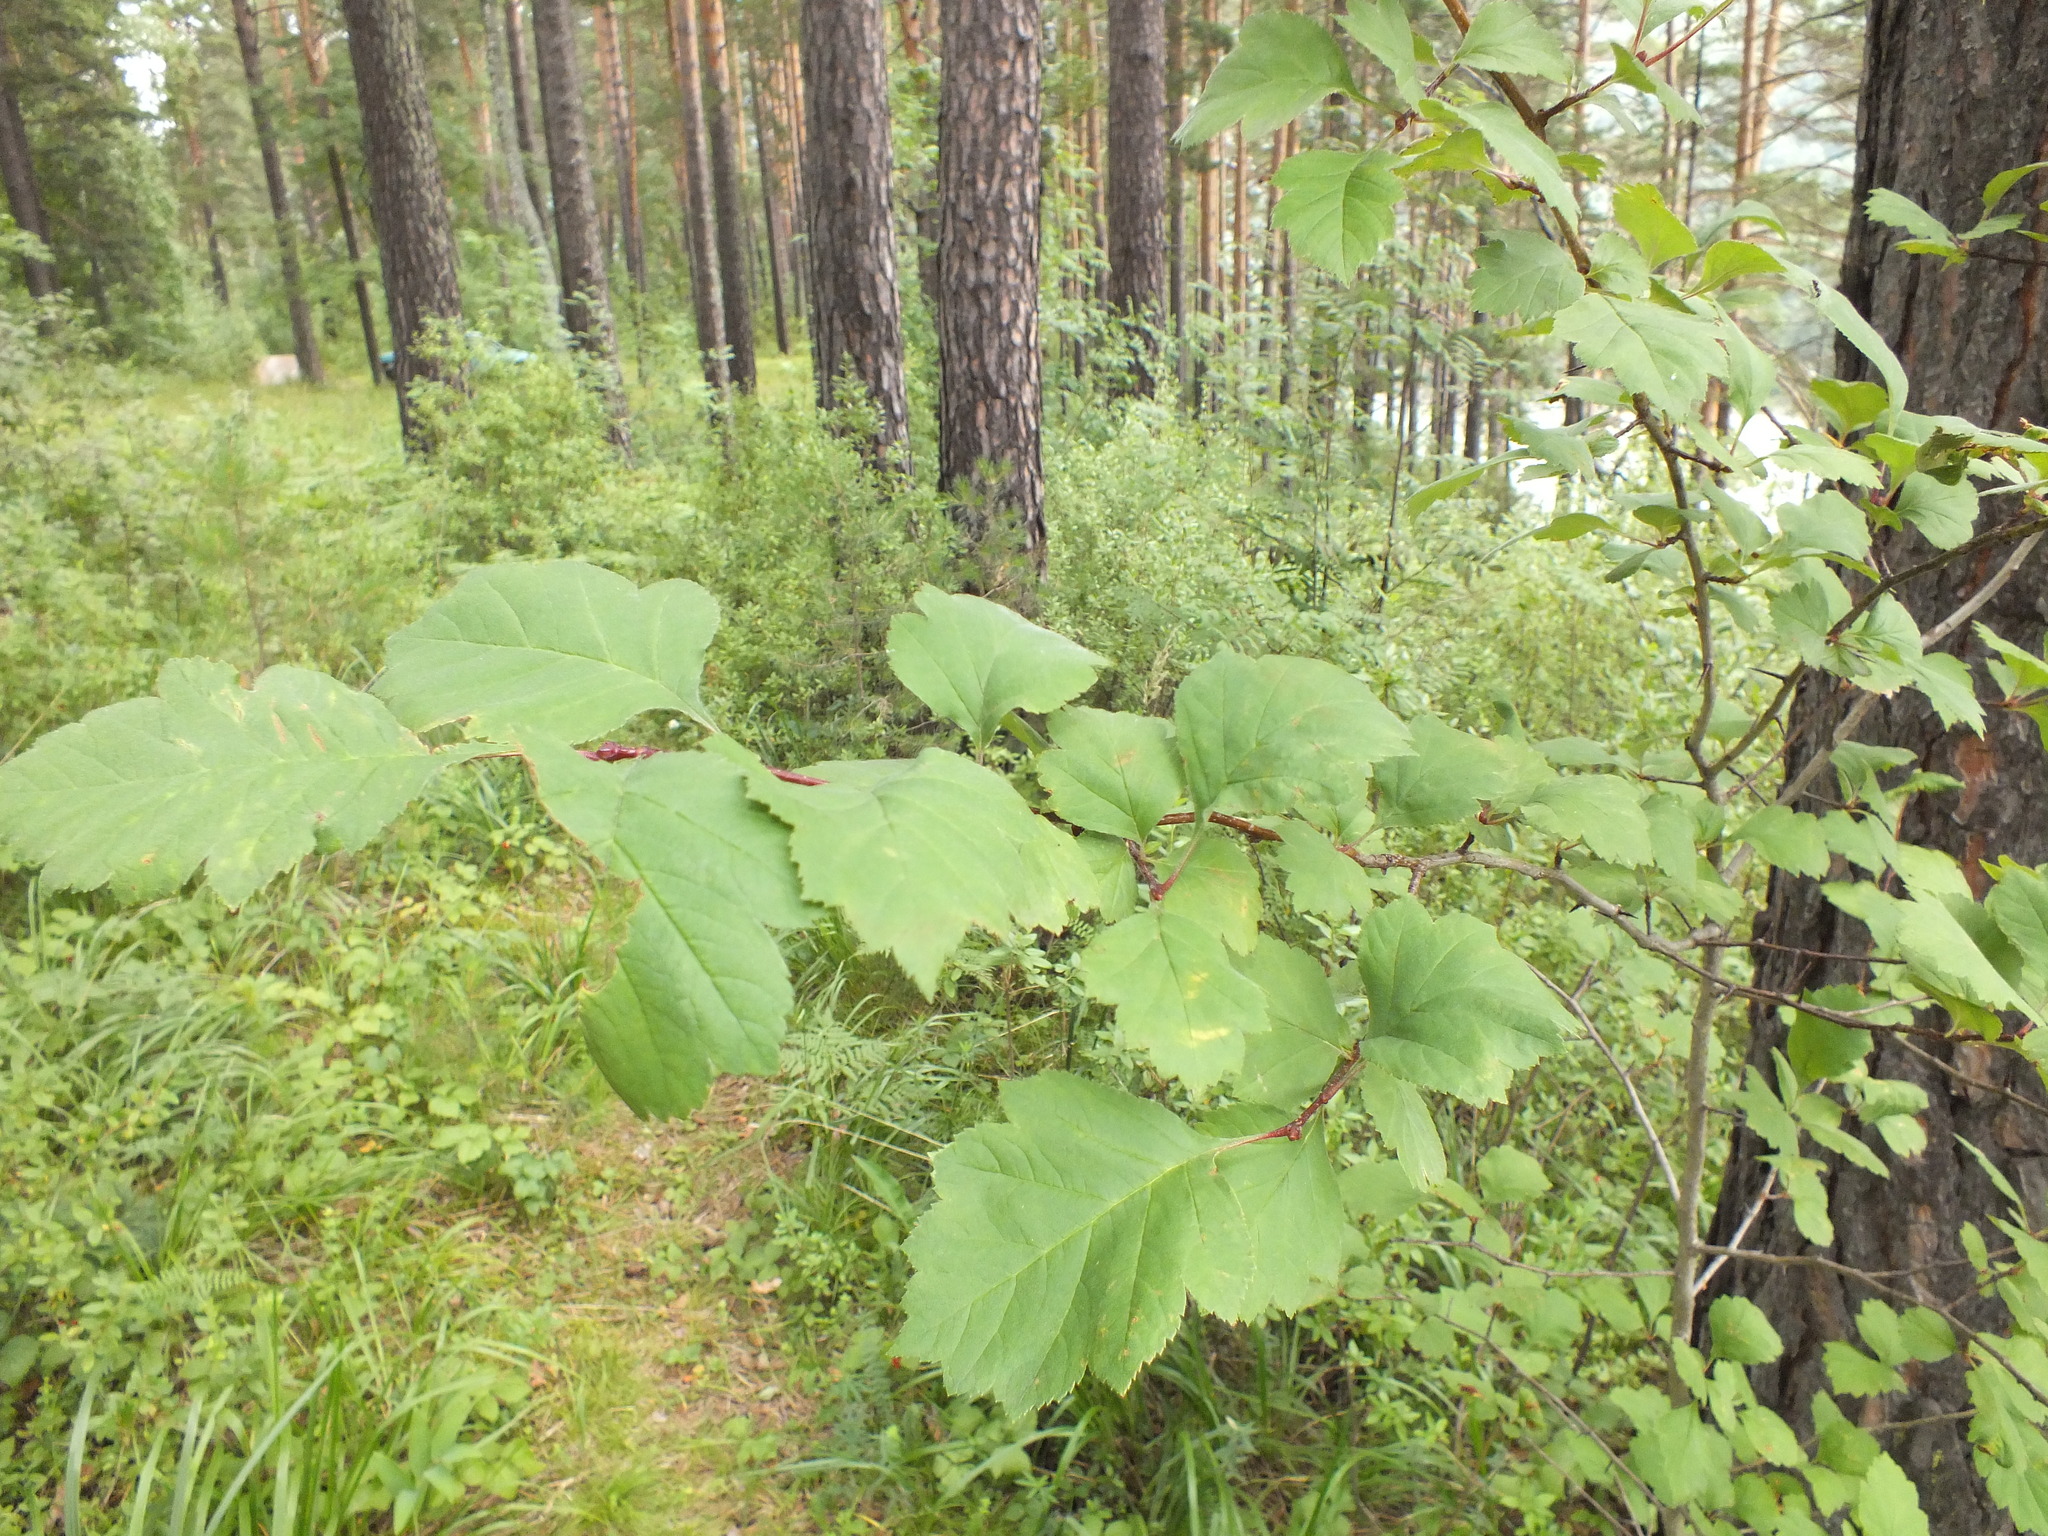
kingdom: Plantae
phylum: Tracheophyta
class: Magnoliopsida
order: Rosales
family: Rosaceae
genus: Crataegus
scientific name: Crataegus sanguinea
